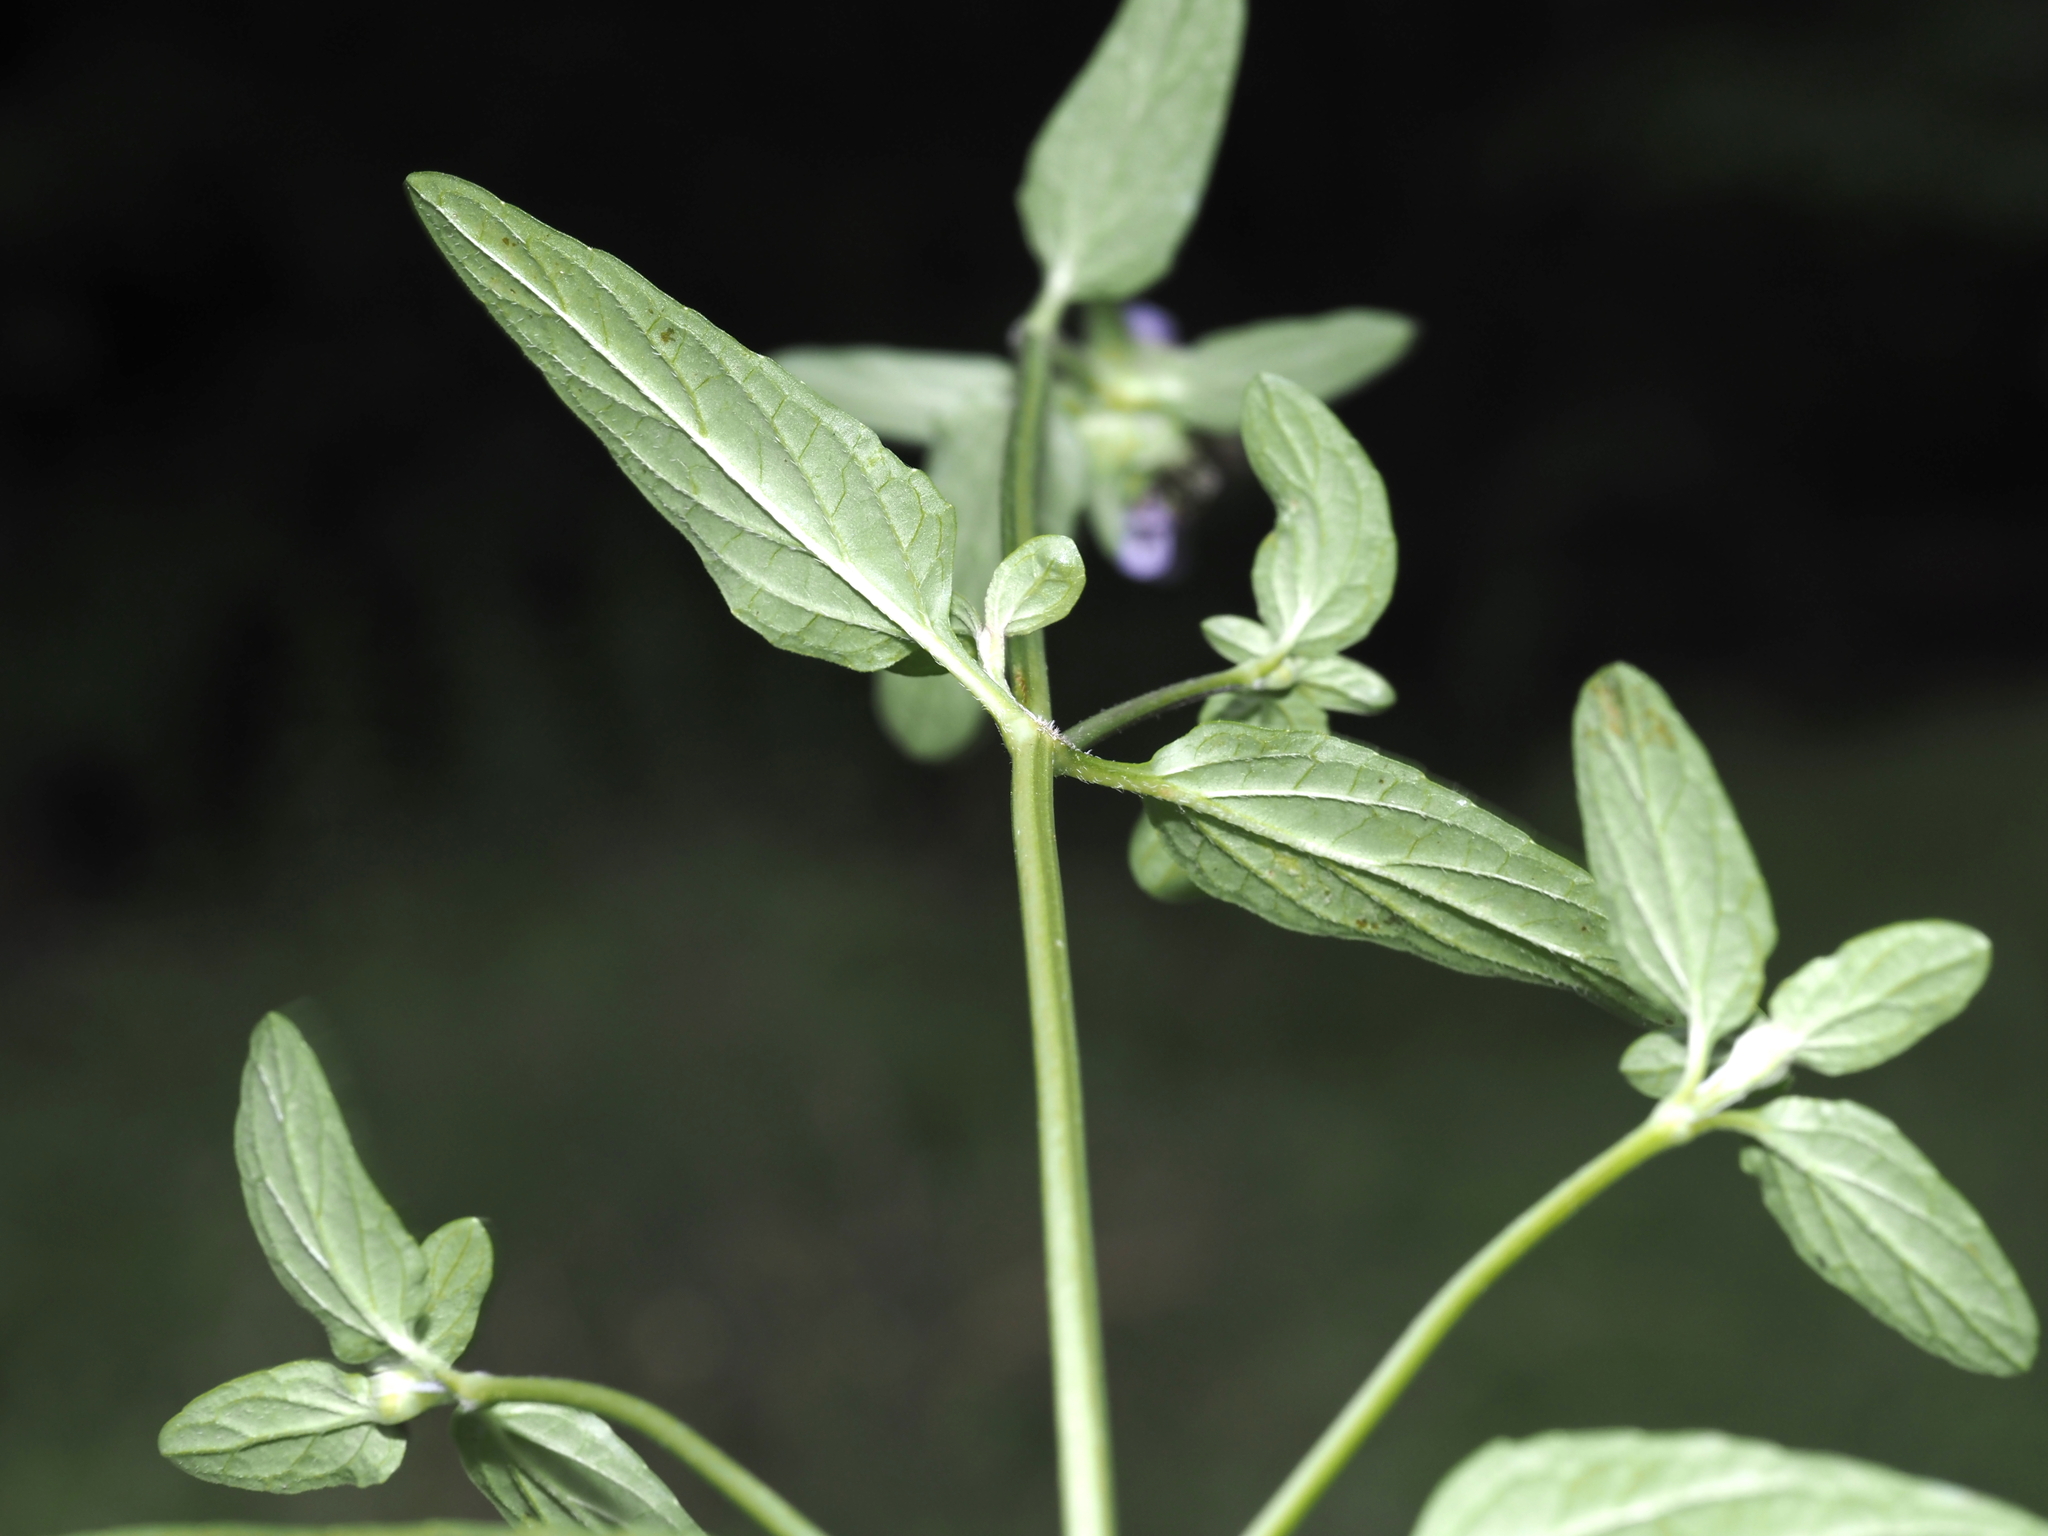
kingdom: Plantae
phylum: Tracheophyta
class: Magnoliopsida
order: Lamiales
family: Lamiaceae
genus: Prunella
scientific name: Prunella vulgaris
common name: Heal-all
